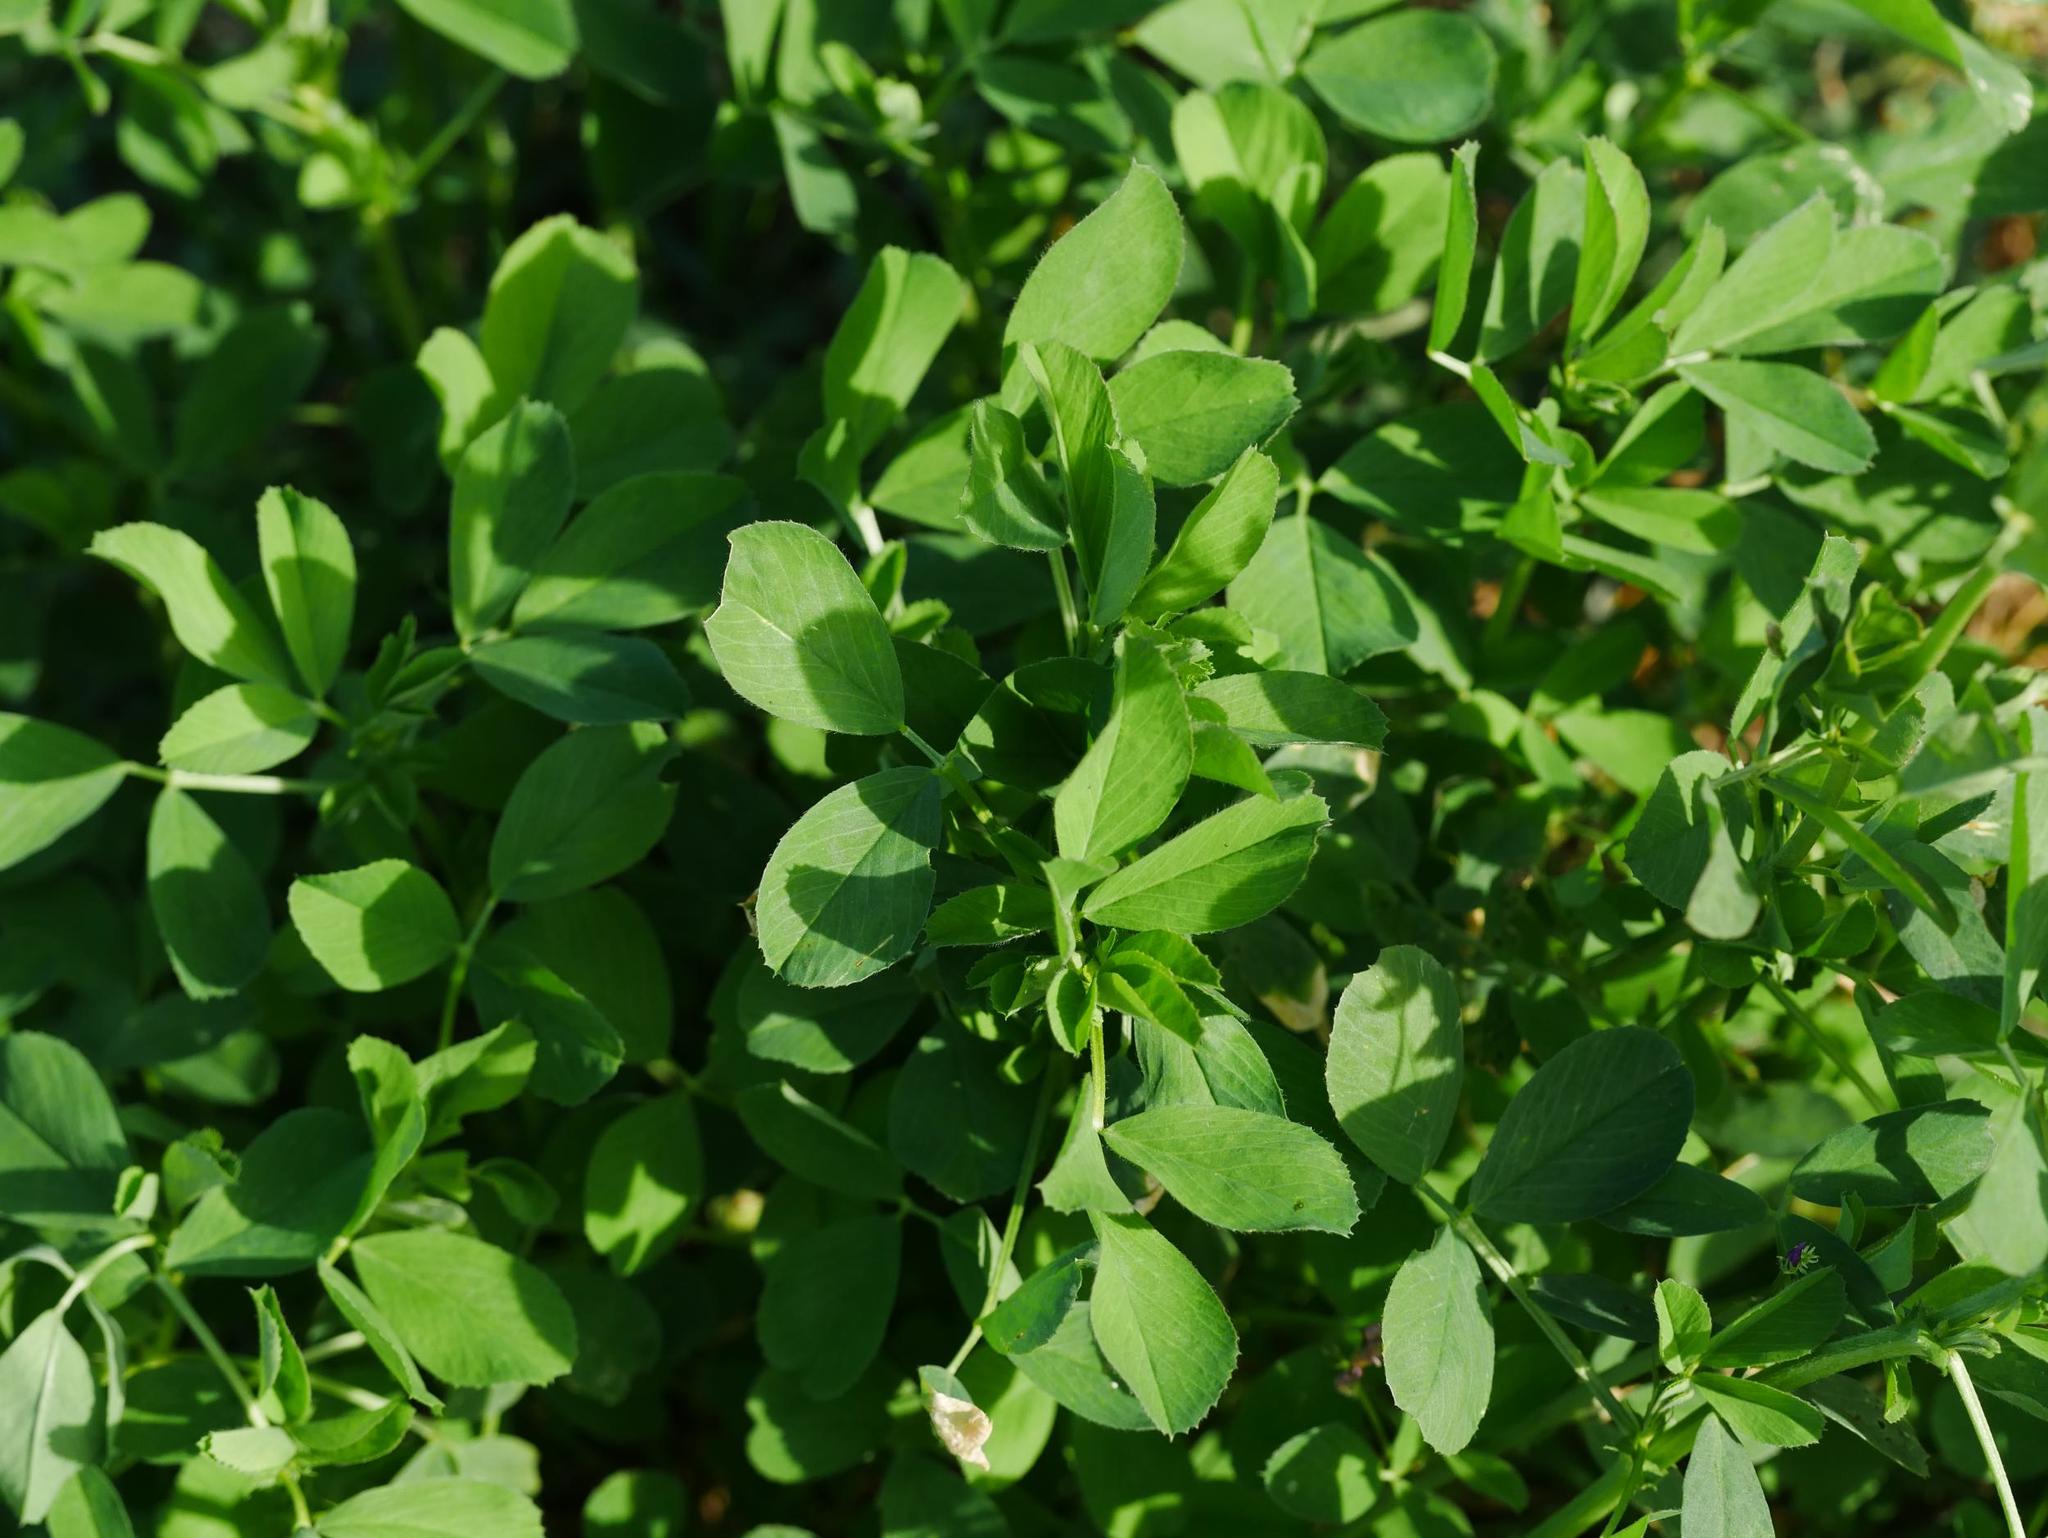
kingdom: Plantae
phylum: Tracheophyta
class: Magnoliopsida
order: Fabales
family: Fabaceae
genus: Lotus
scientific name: Lotus corniculatus
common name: Common bird's-foot-trefoil
